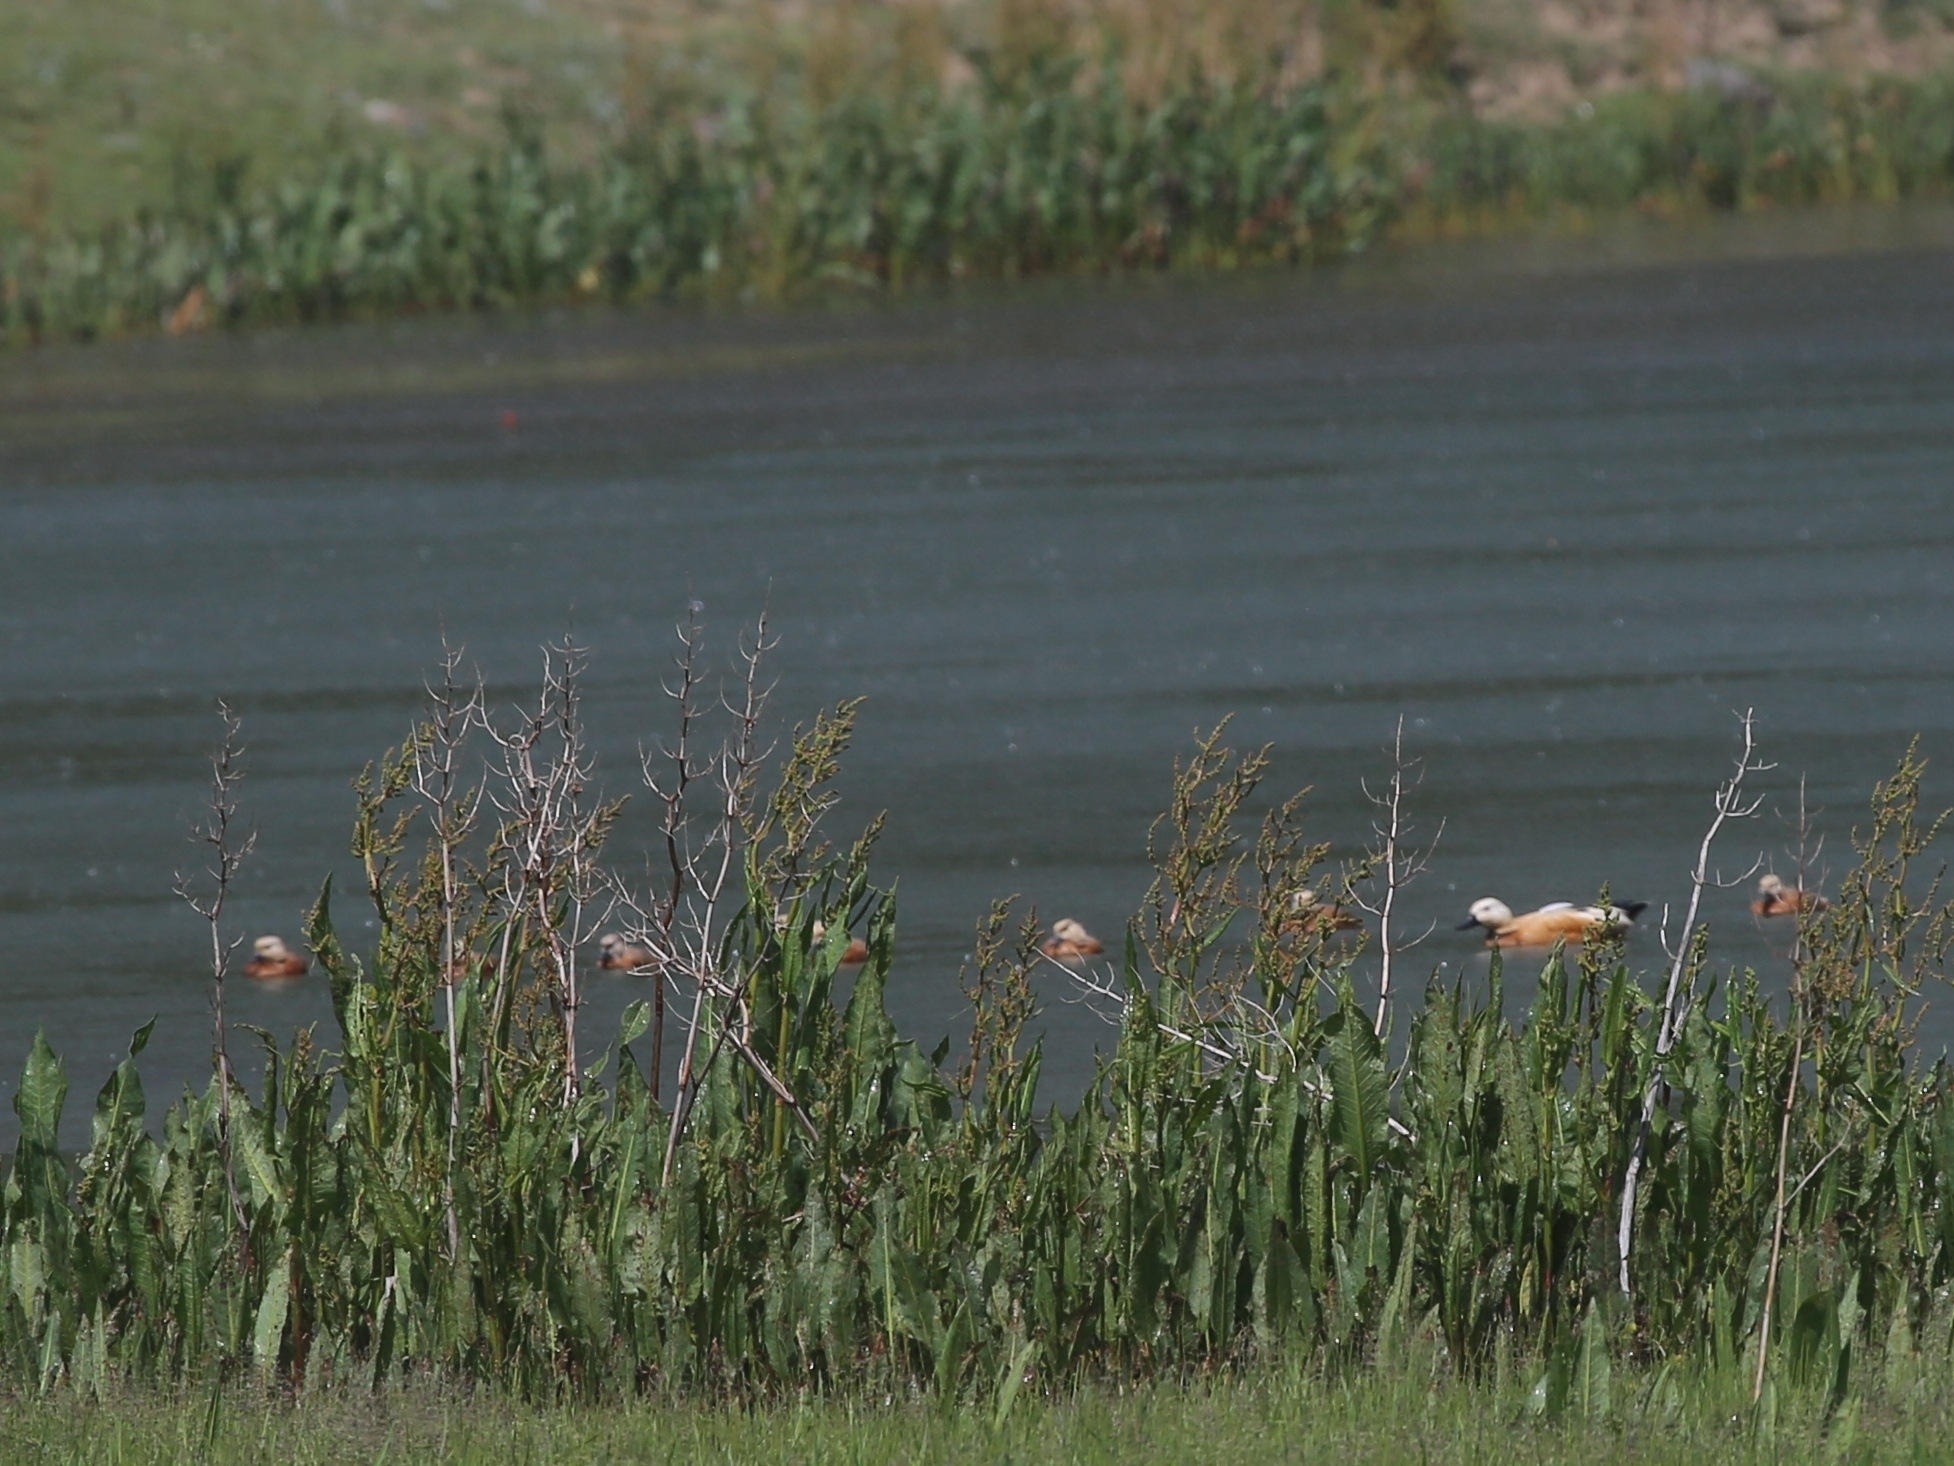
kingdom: Animalia
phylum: Chordata
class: Aves
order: Anseriformes
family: Anatidae
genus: Tadorna
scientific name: Tadorna ferruginea
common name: Ruddy shelduck
